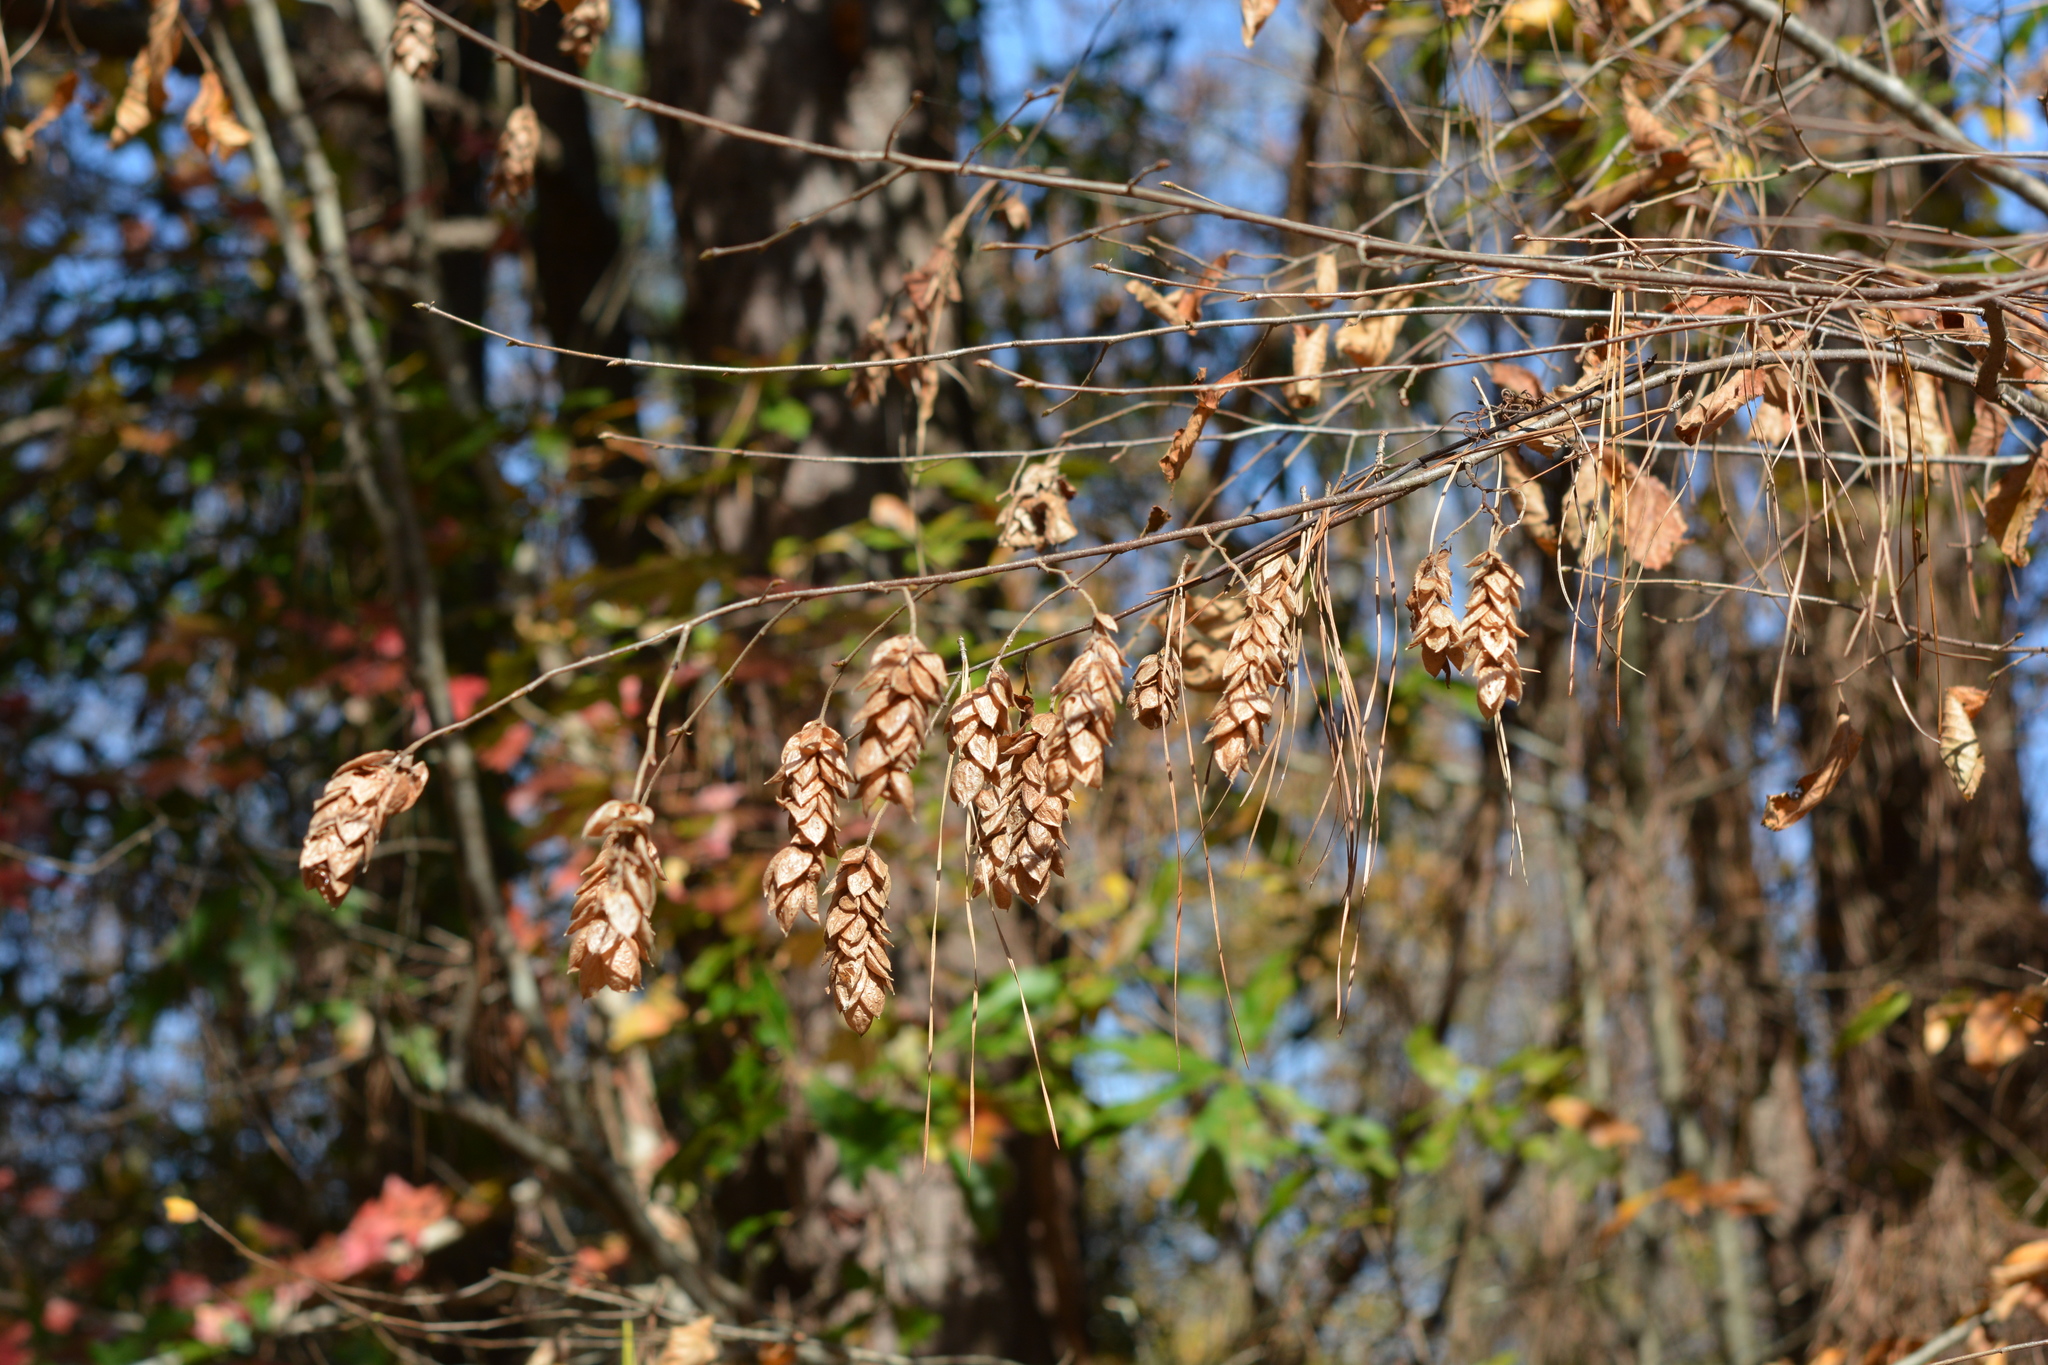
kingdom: Plantae
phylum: Tracheophyta
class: Magnoliopsida
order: Fagales
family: Betulaceae
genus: Ostrya
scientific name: Ostrya virginiana
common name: Ironwood
